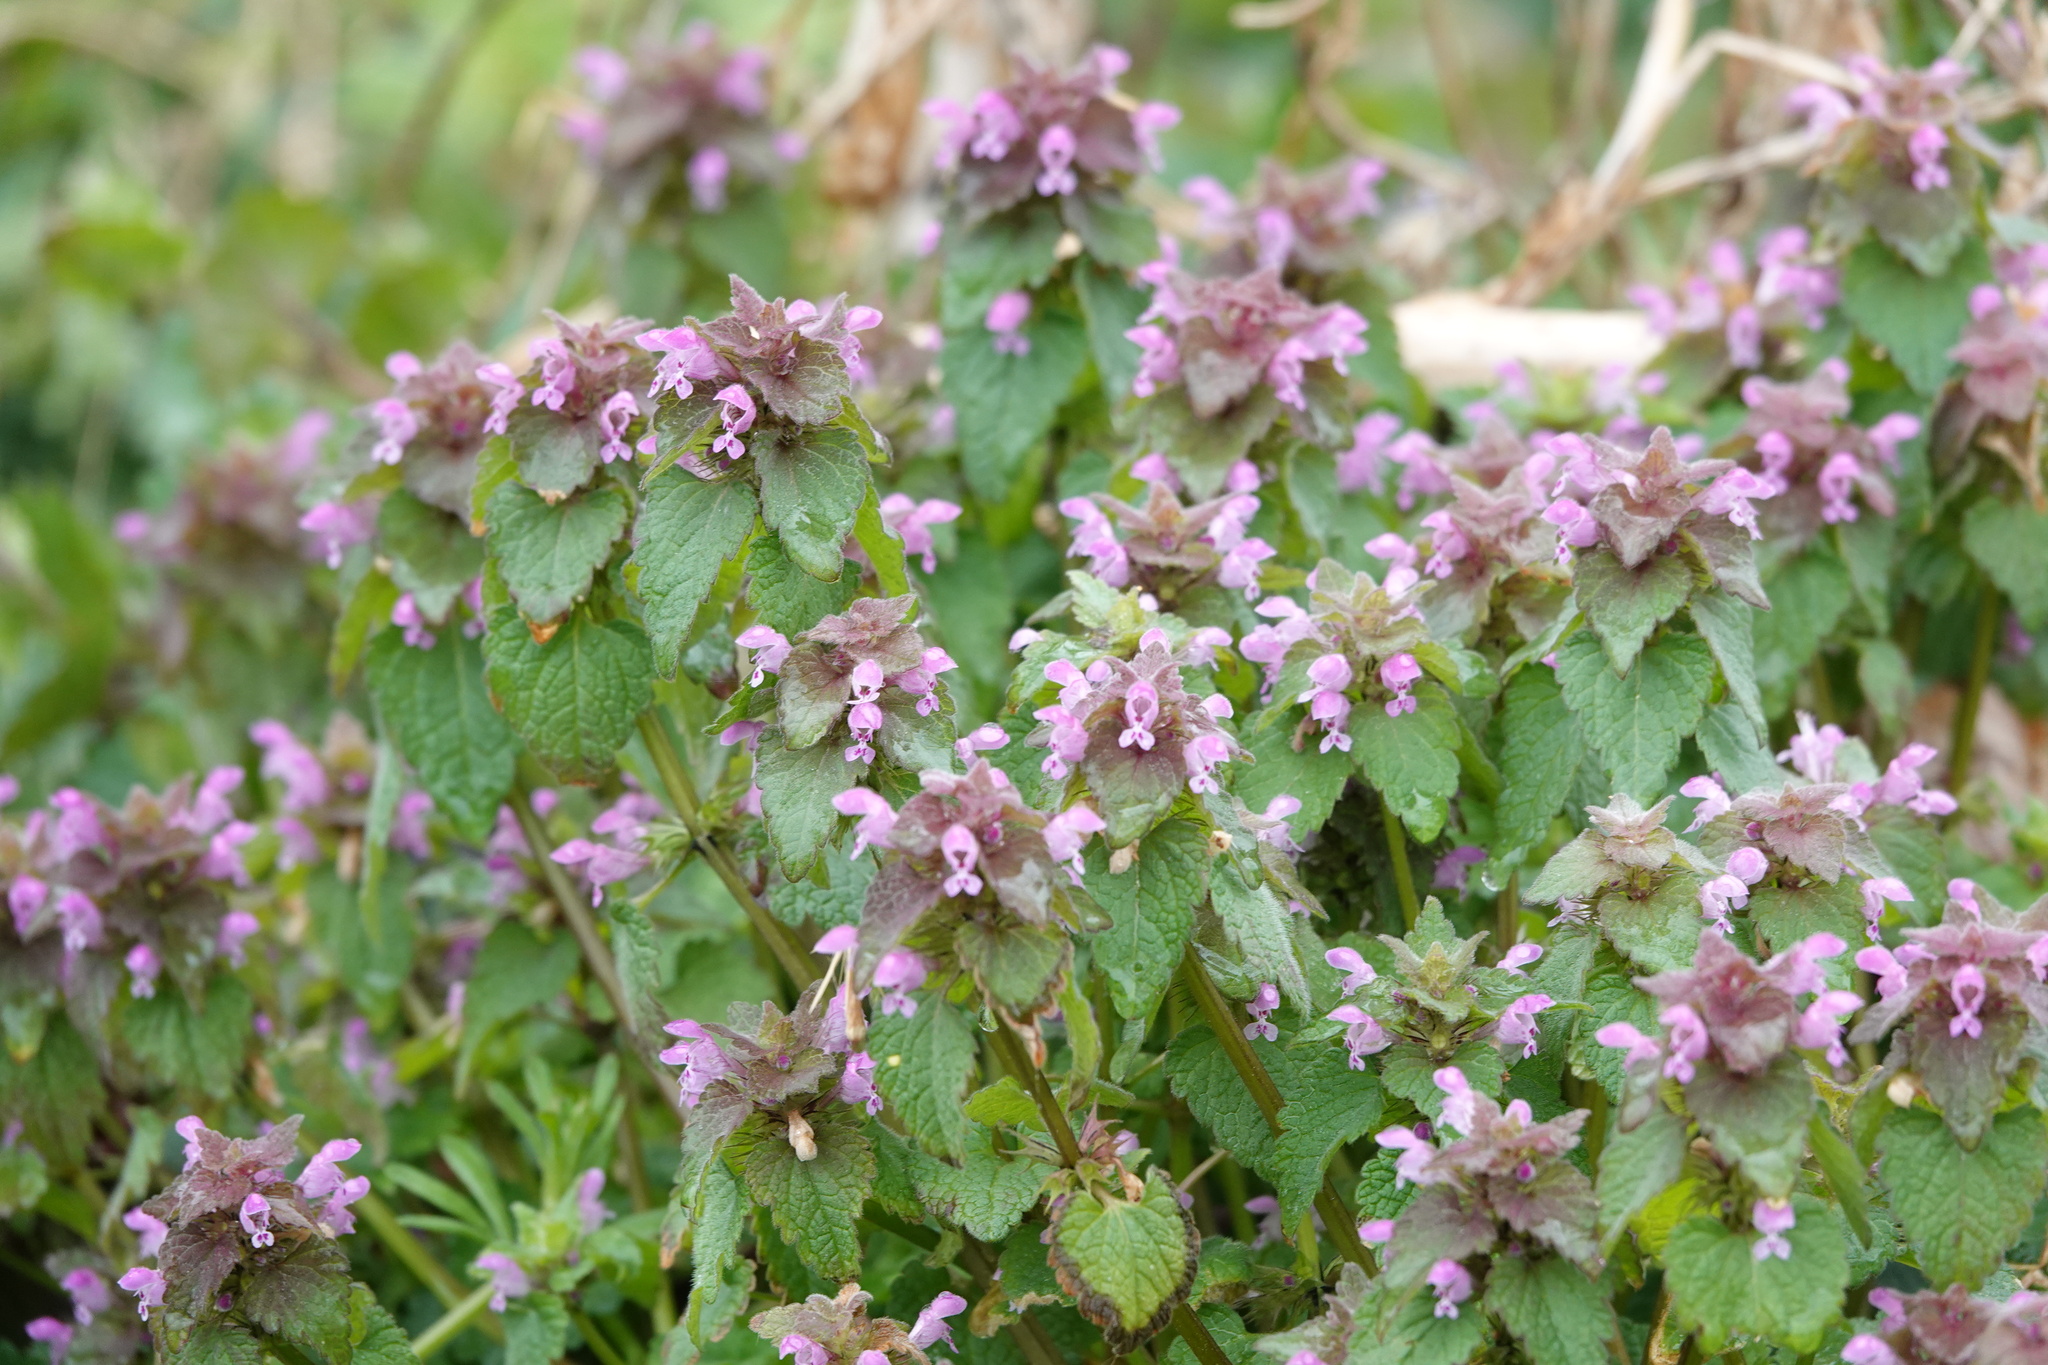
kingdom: Plantae
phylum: Tracheophyta
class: Magnoliopsida
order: Lamiales
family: Lamiaceae
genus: Lamium
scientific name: Lamium purpureum
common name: Red dead-nettle
